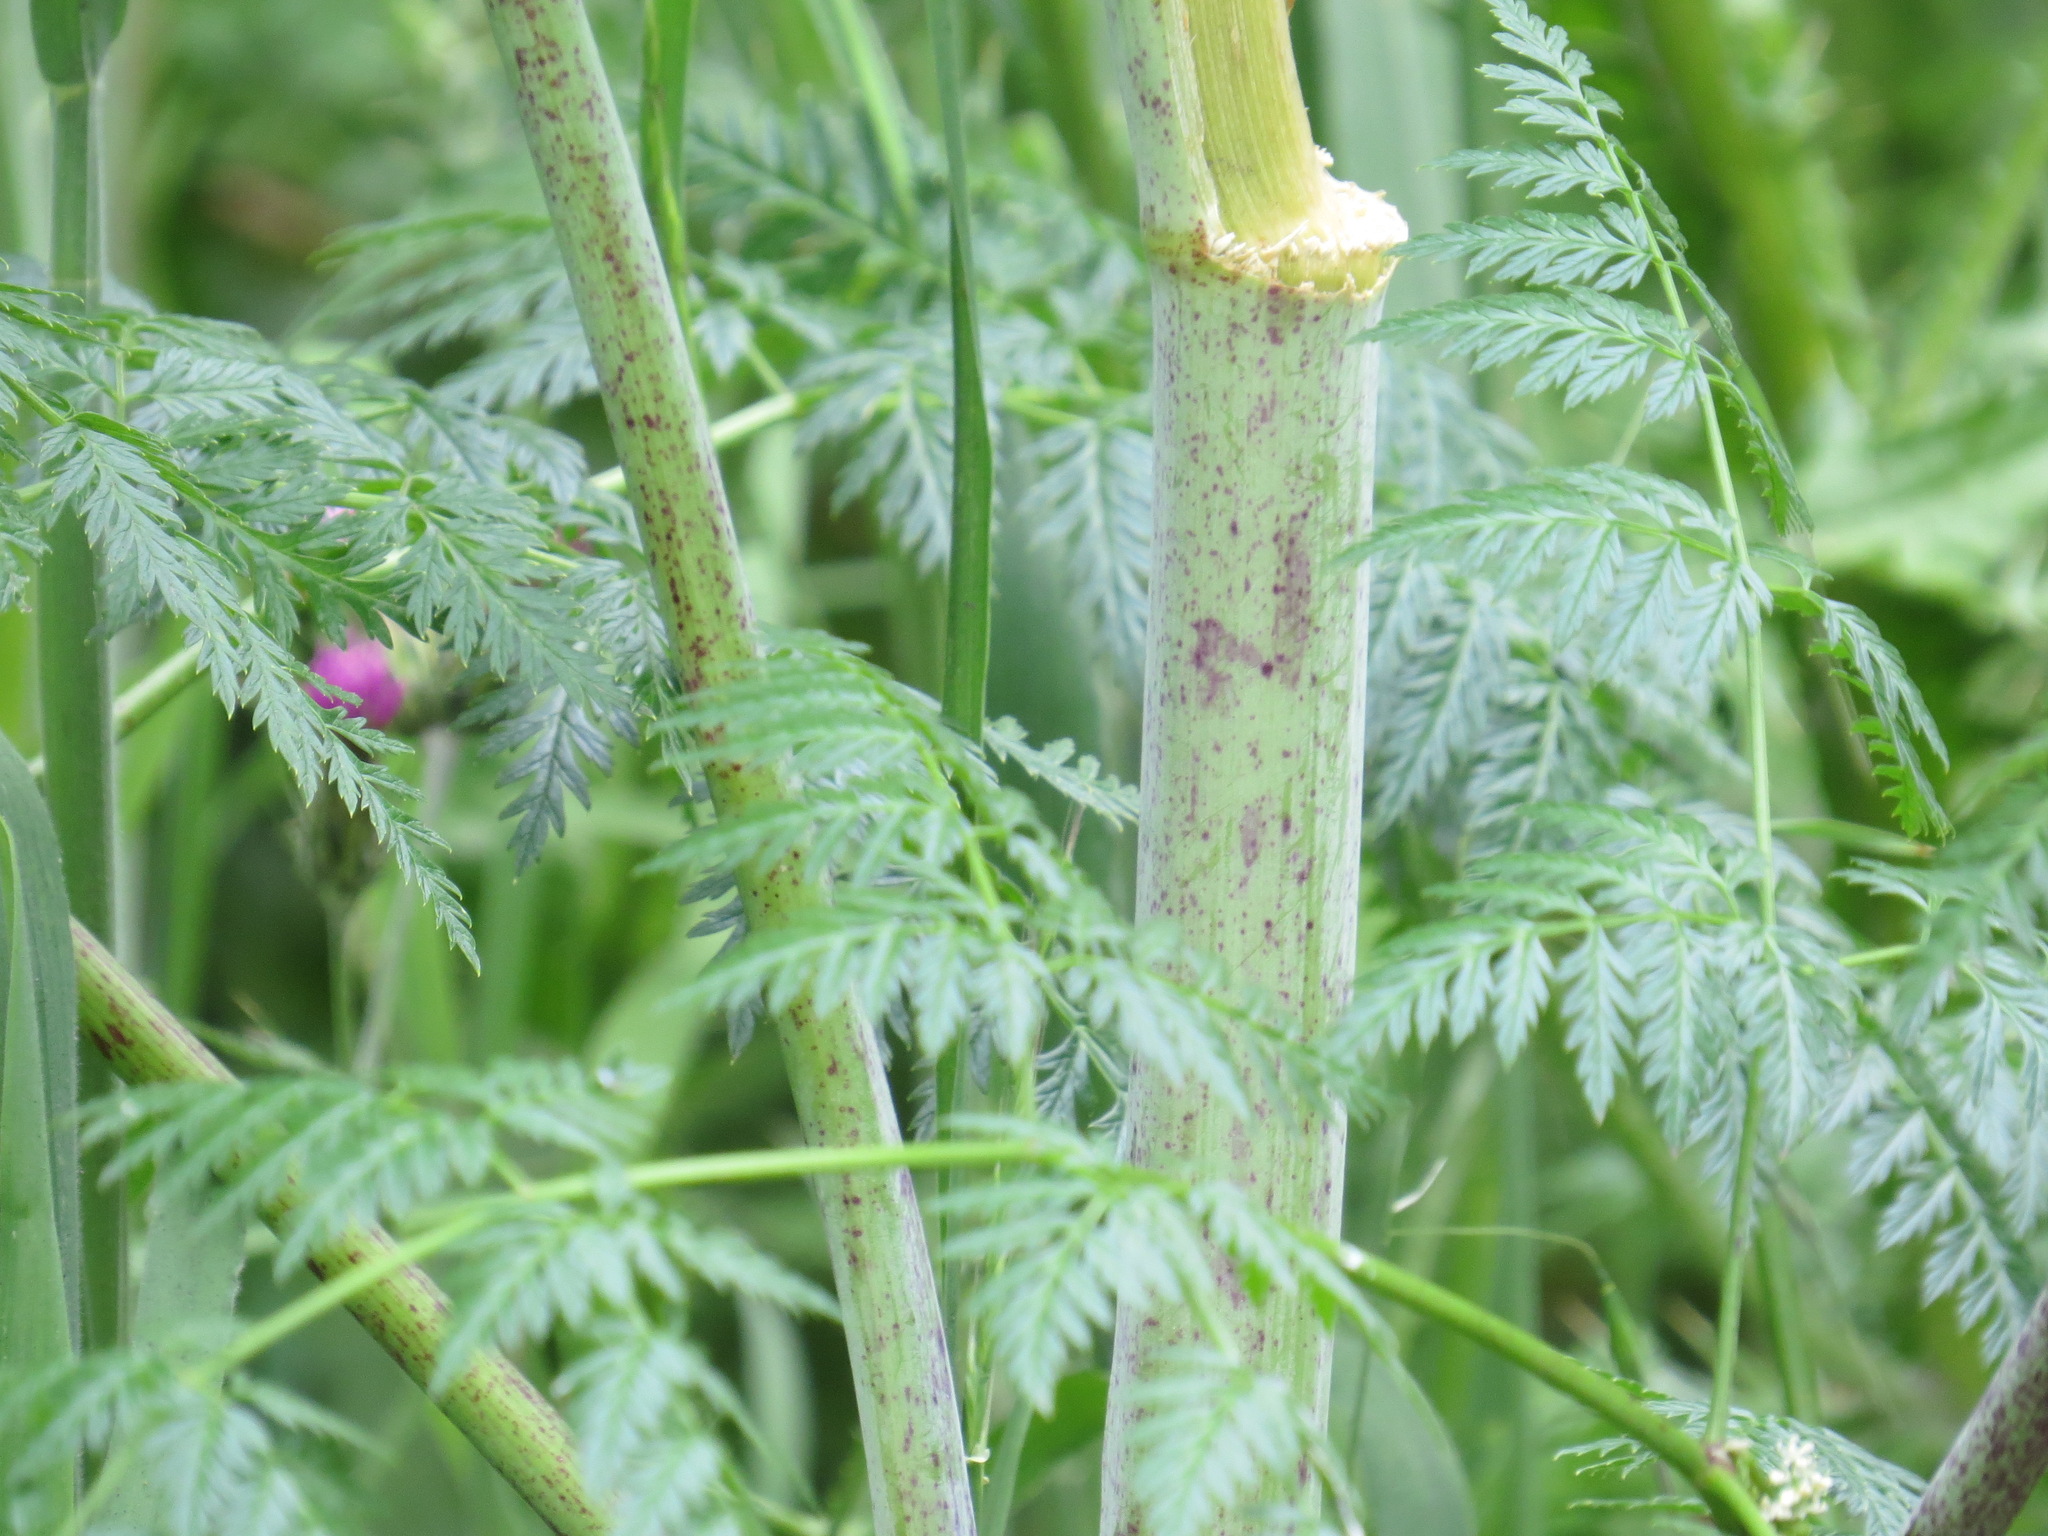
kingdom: Plantae
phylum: Tracheophyta
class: Magnoliopsida
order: Apiales
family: Apiaceae
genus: Conium
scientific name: Conium maculatum
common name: Hemlock
